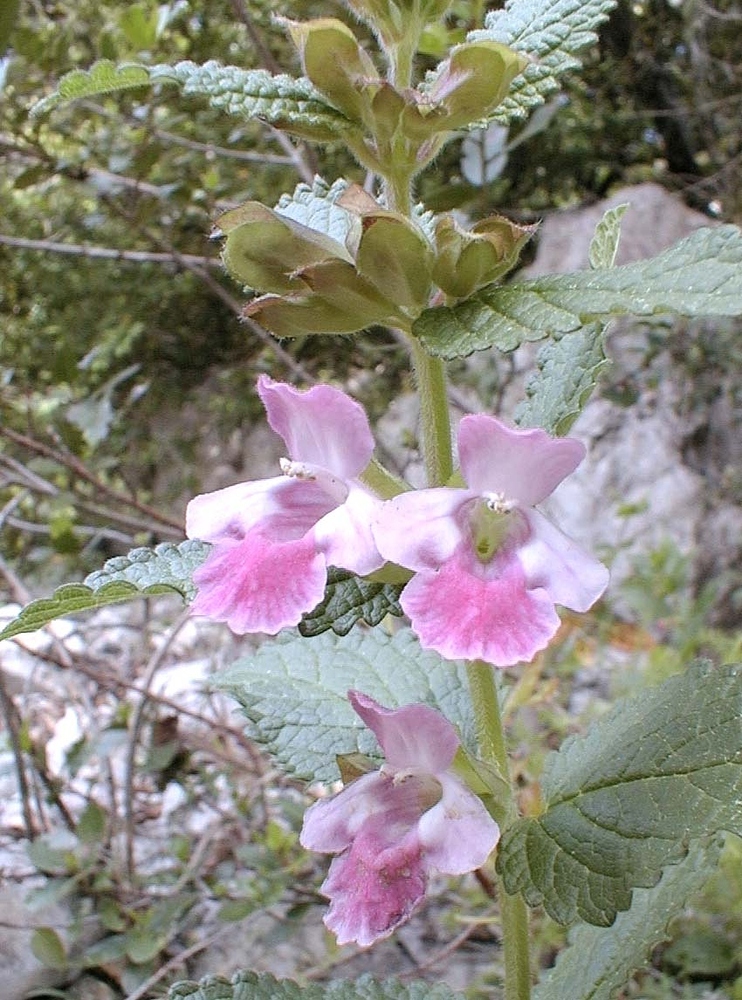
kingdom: Plantae
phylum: Tracheophyta
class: Magnoliopsida
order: Lamiales
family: Lamiaceae
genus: Melittis
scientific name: Melittis melissophyllum
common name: Bastard balm
